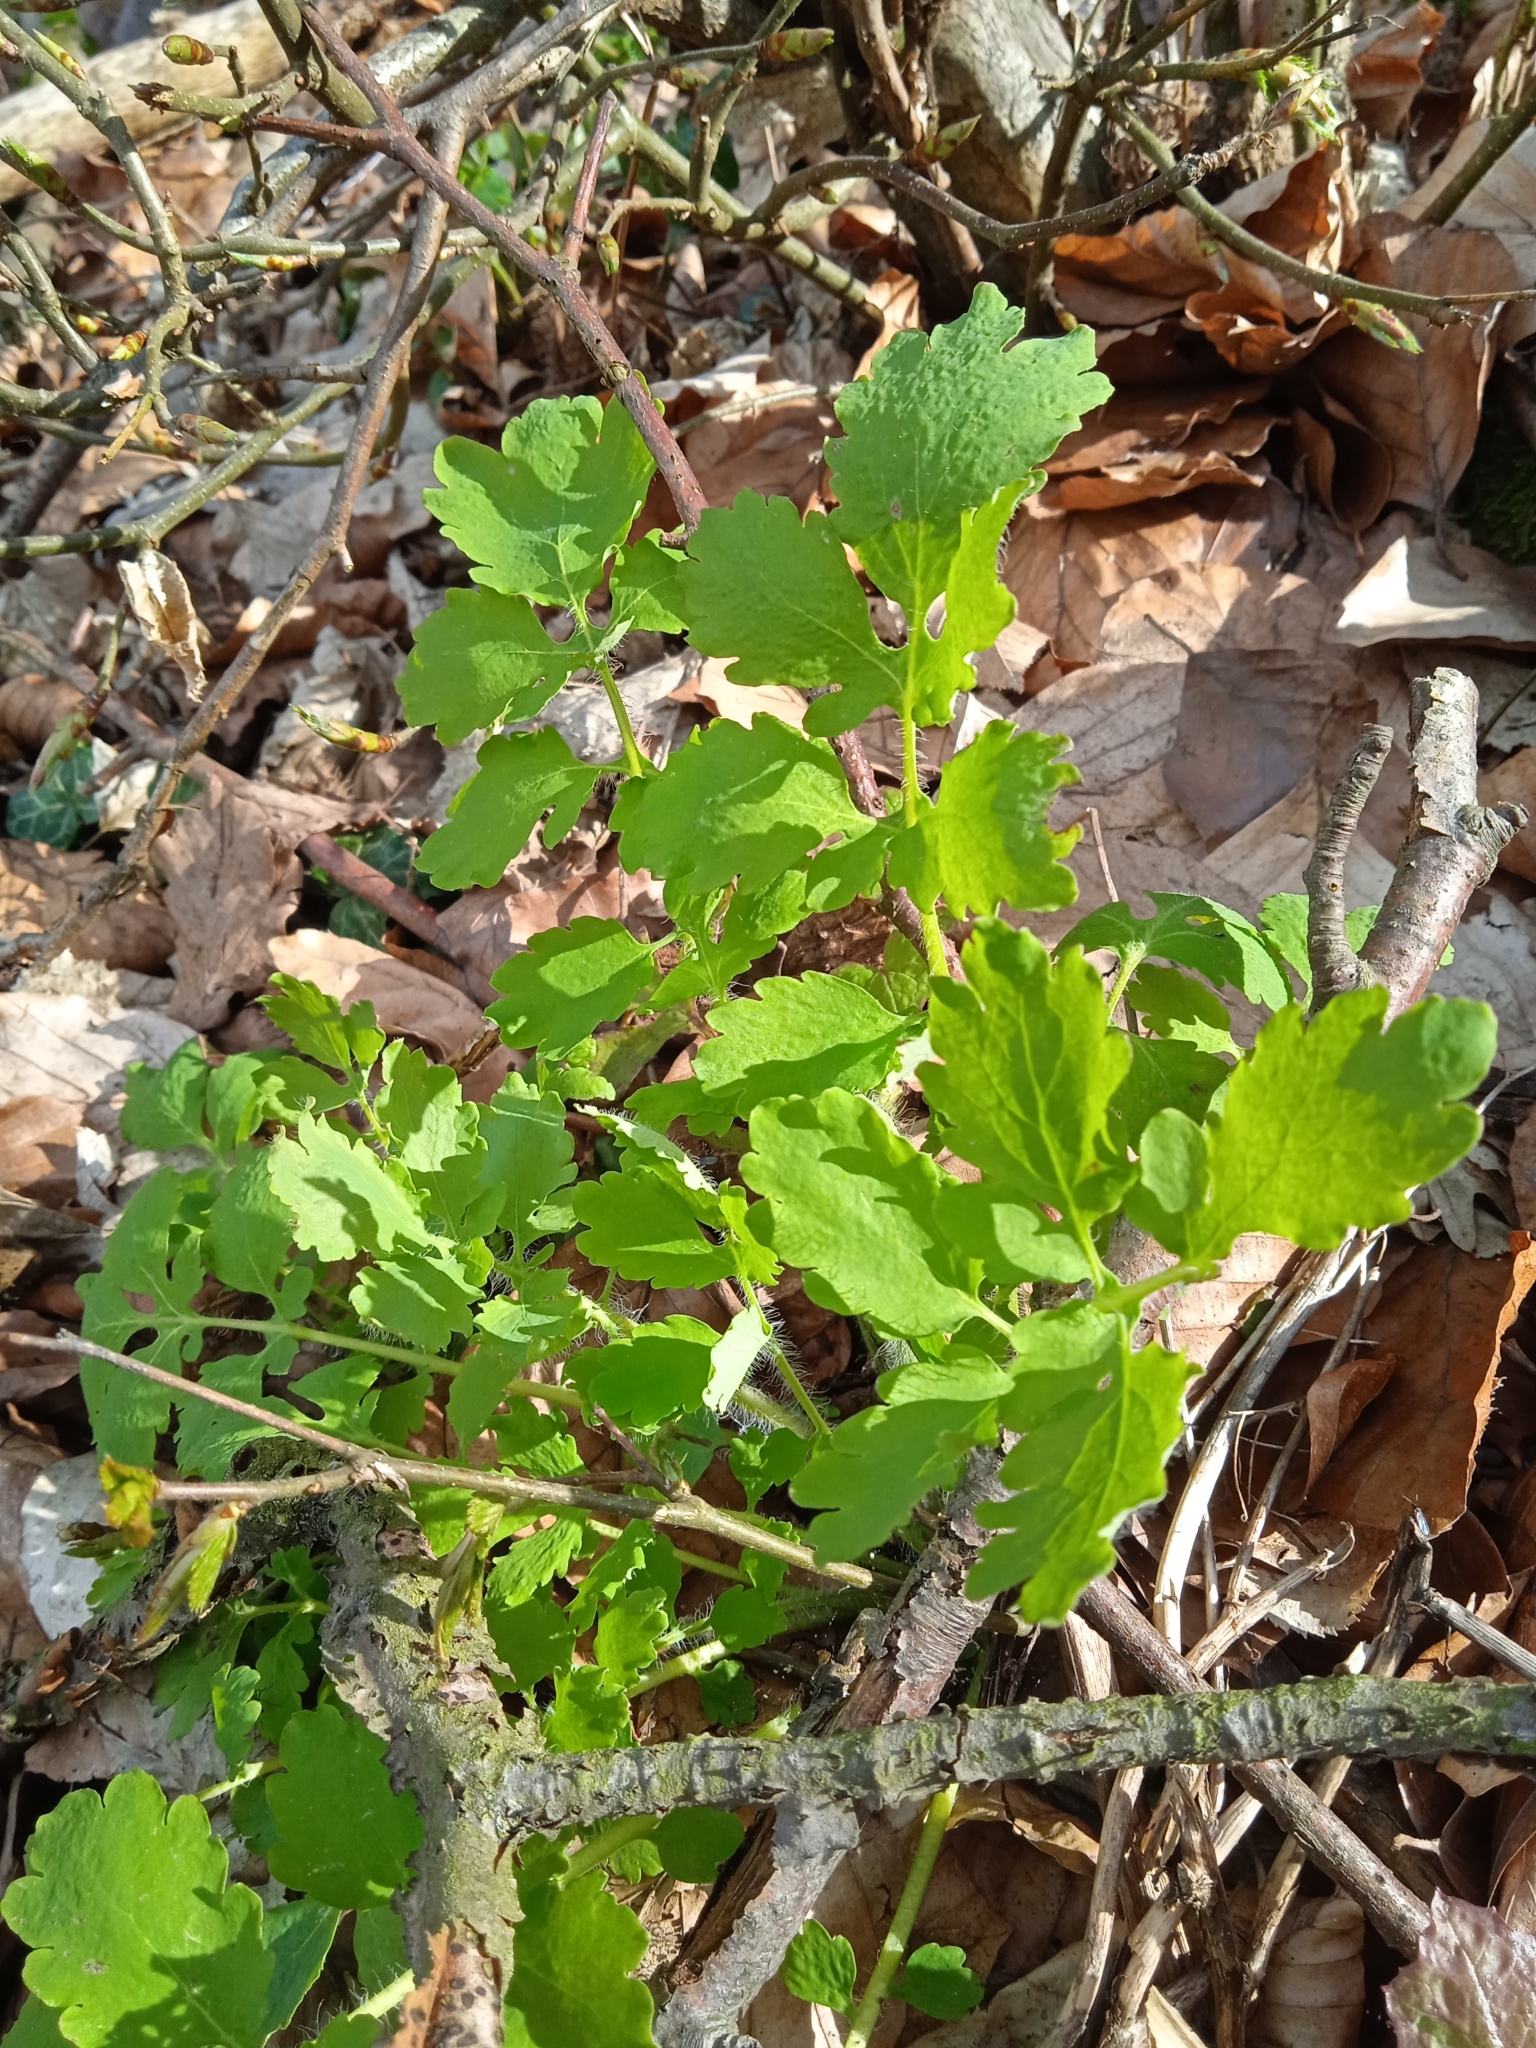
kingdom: Plantae
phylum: Tracheophyta
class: Magnoliopsida
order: Ranunculales
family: Papaveraceae
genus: Chelidonium
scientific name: Chelidonium majus
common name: Greater celandine
